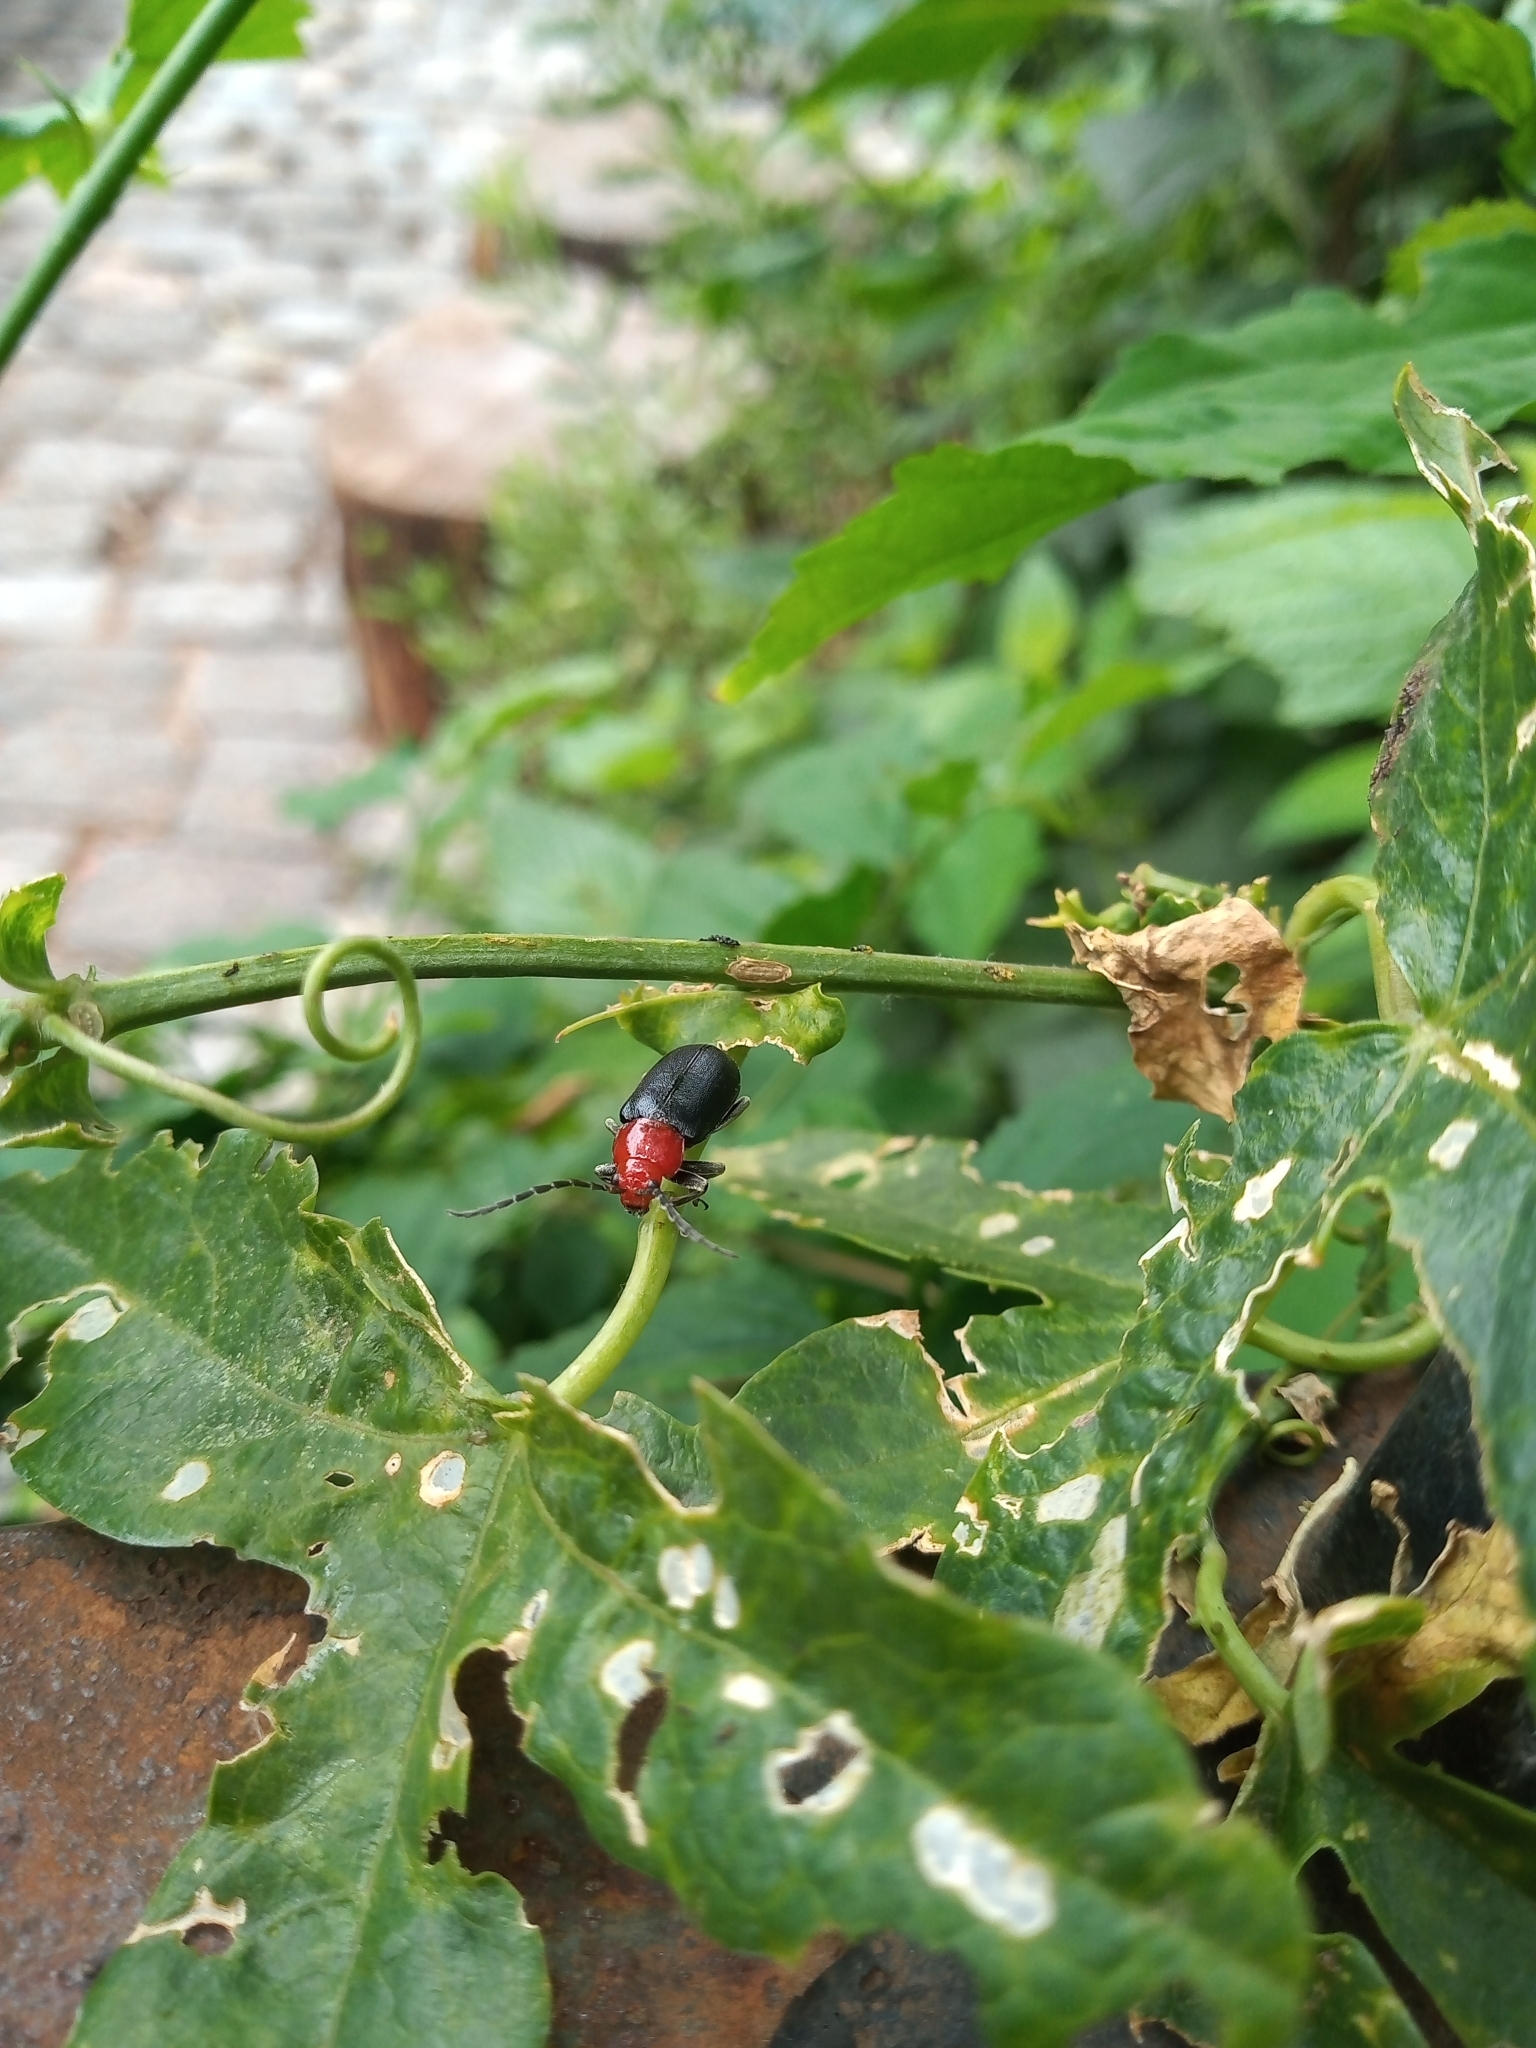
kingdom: Animalia
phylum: Arthropoda
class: Insecta
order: Coleoptera
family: Chrysomelidae
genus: Cacoscelis
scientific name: Cacoscelis
